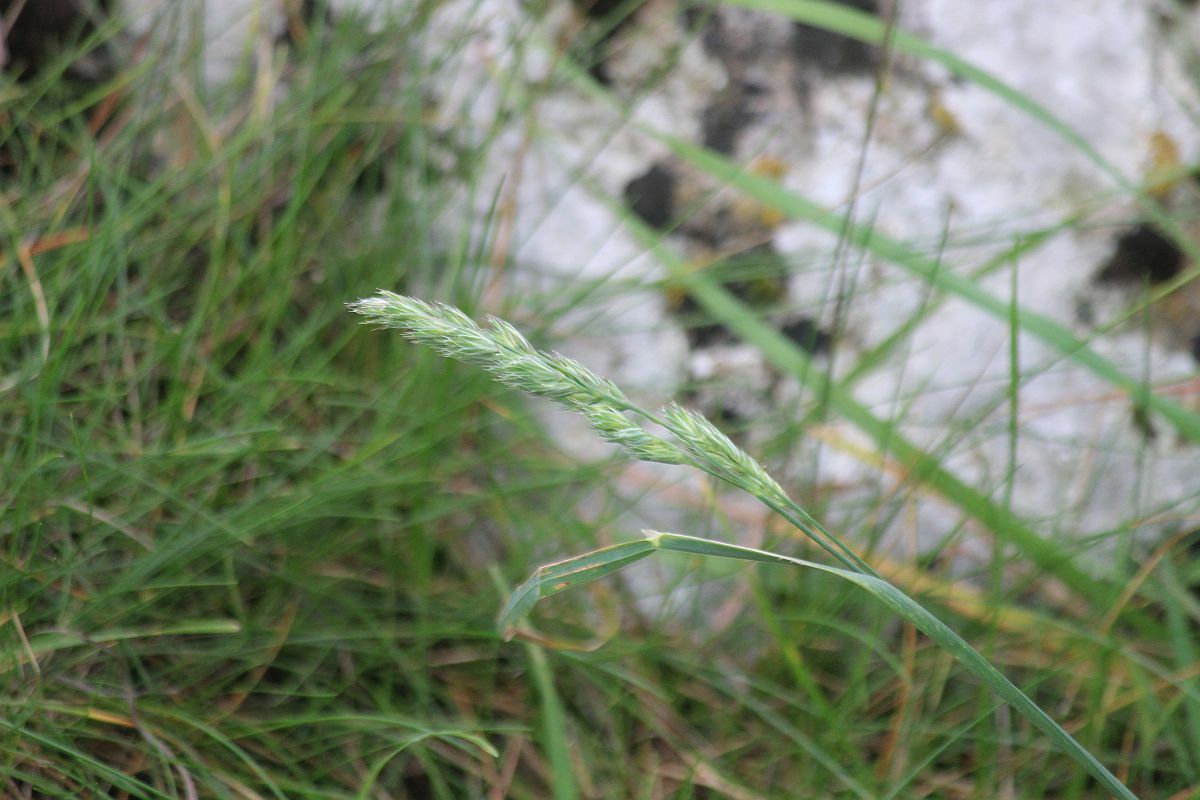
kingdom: Plantae
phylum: Tracheophyta
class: Liliopsida
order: Poales
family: Poaceae
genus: Dactylis
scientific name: Dactylis glomerata
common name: Orchardgrass
